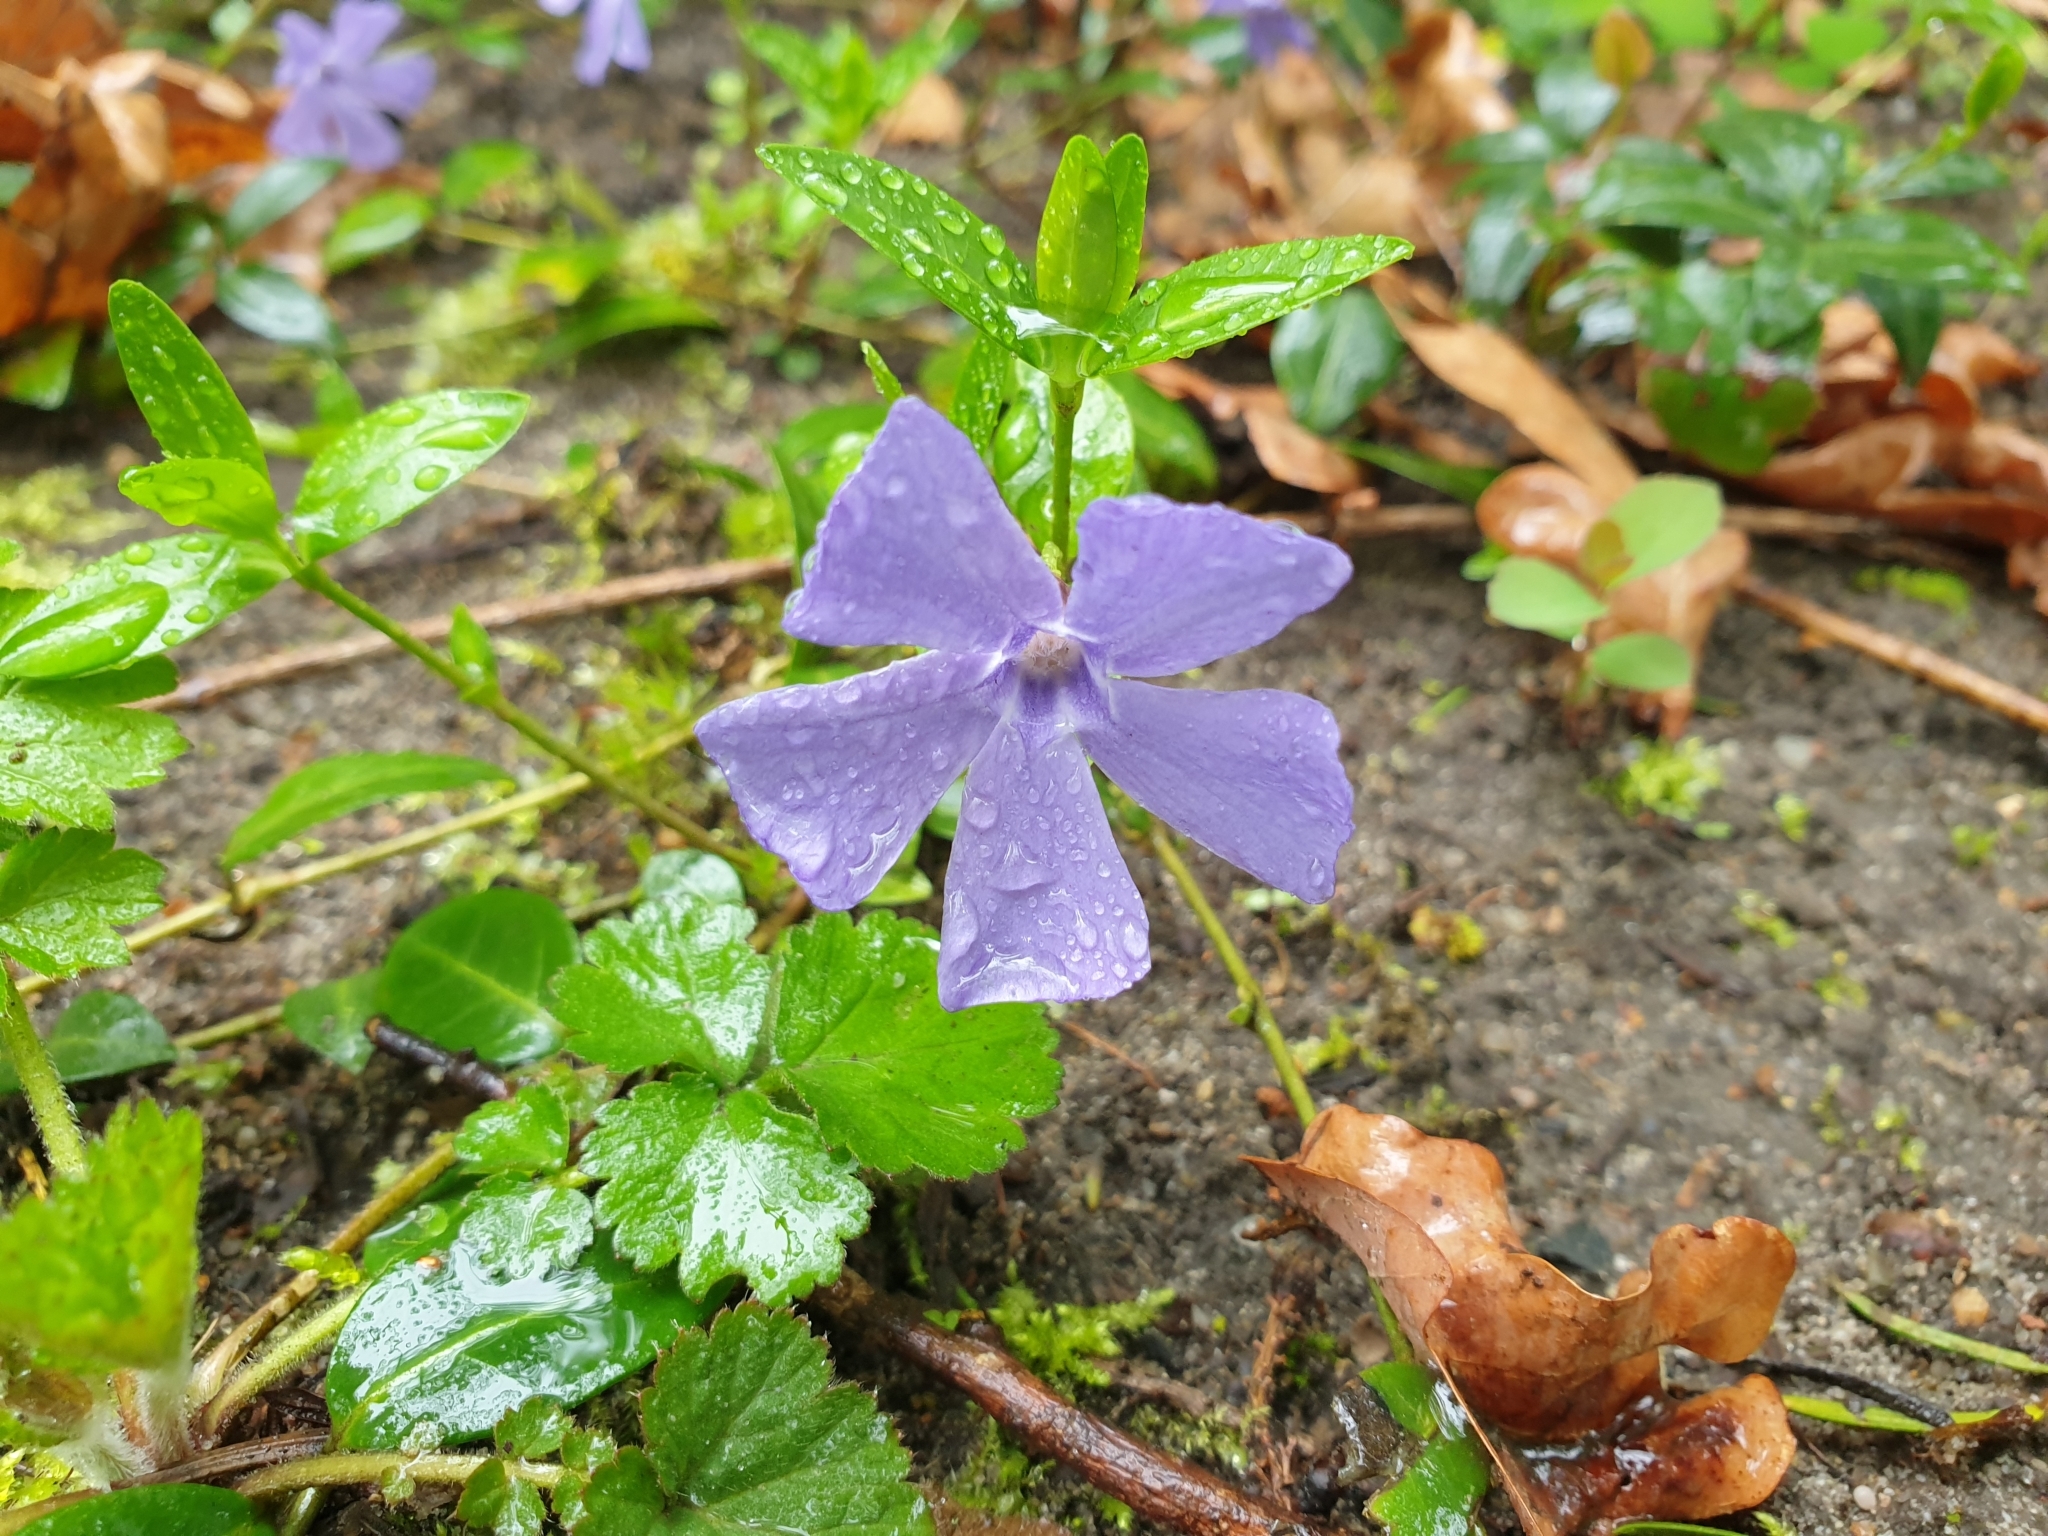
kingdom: Plantae
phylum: Tracheophyta
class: Magnoliopsida
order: Gentianales
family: Apocynaceae
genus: Vinca
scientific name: Vinca minor
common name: Lesser periwinkle
